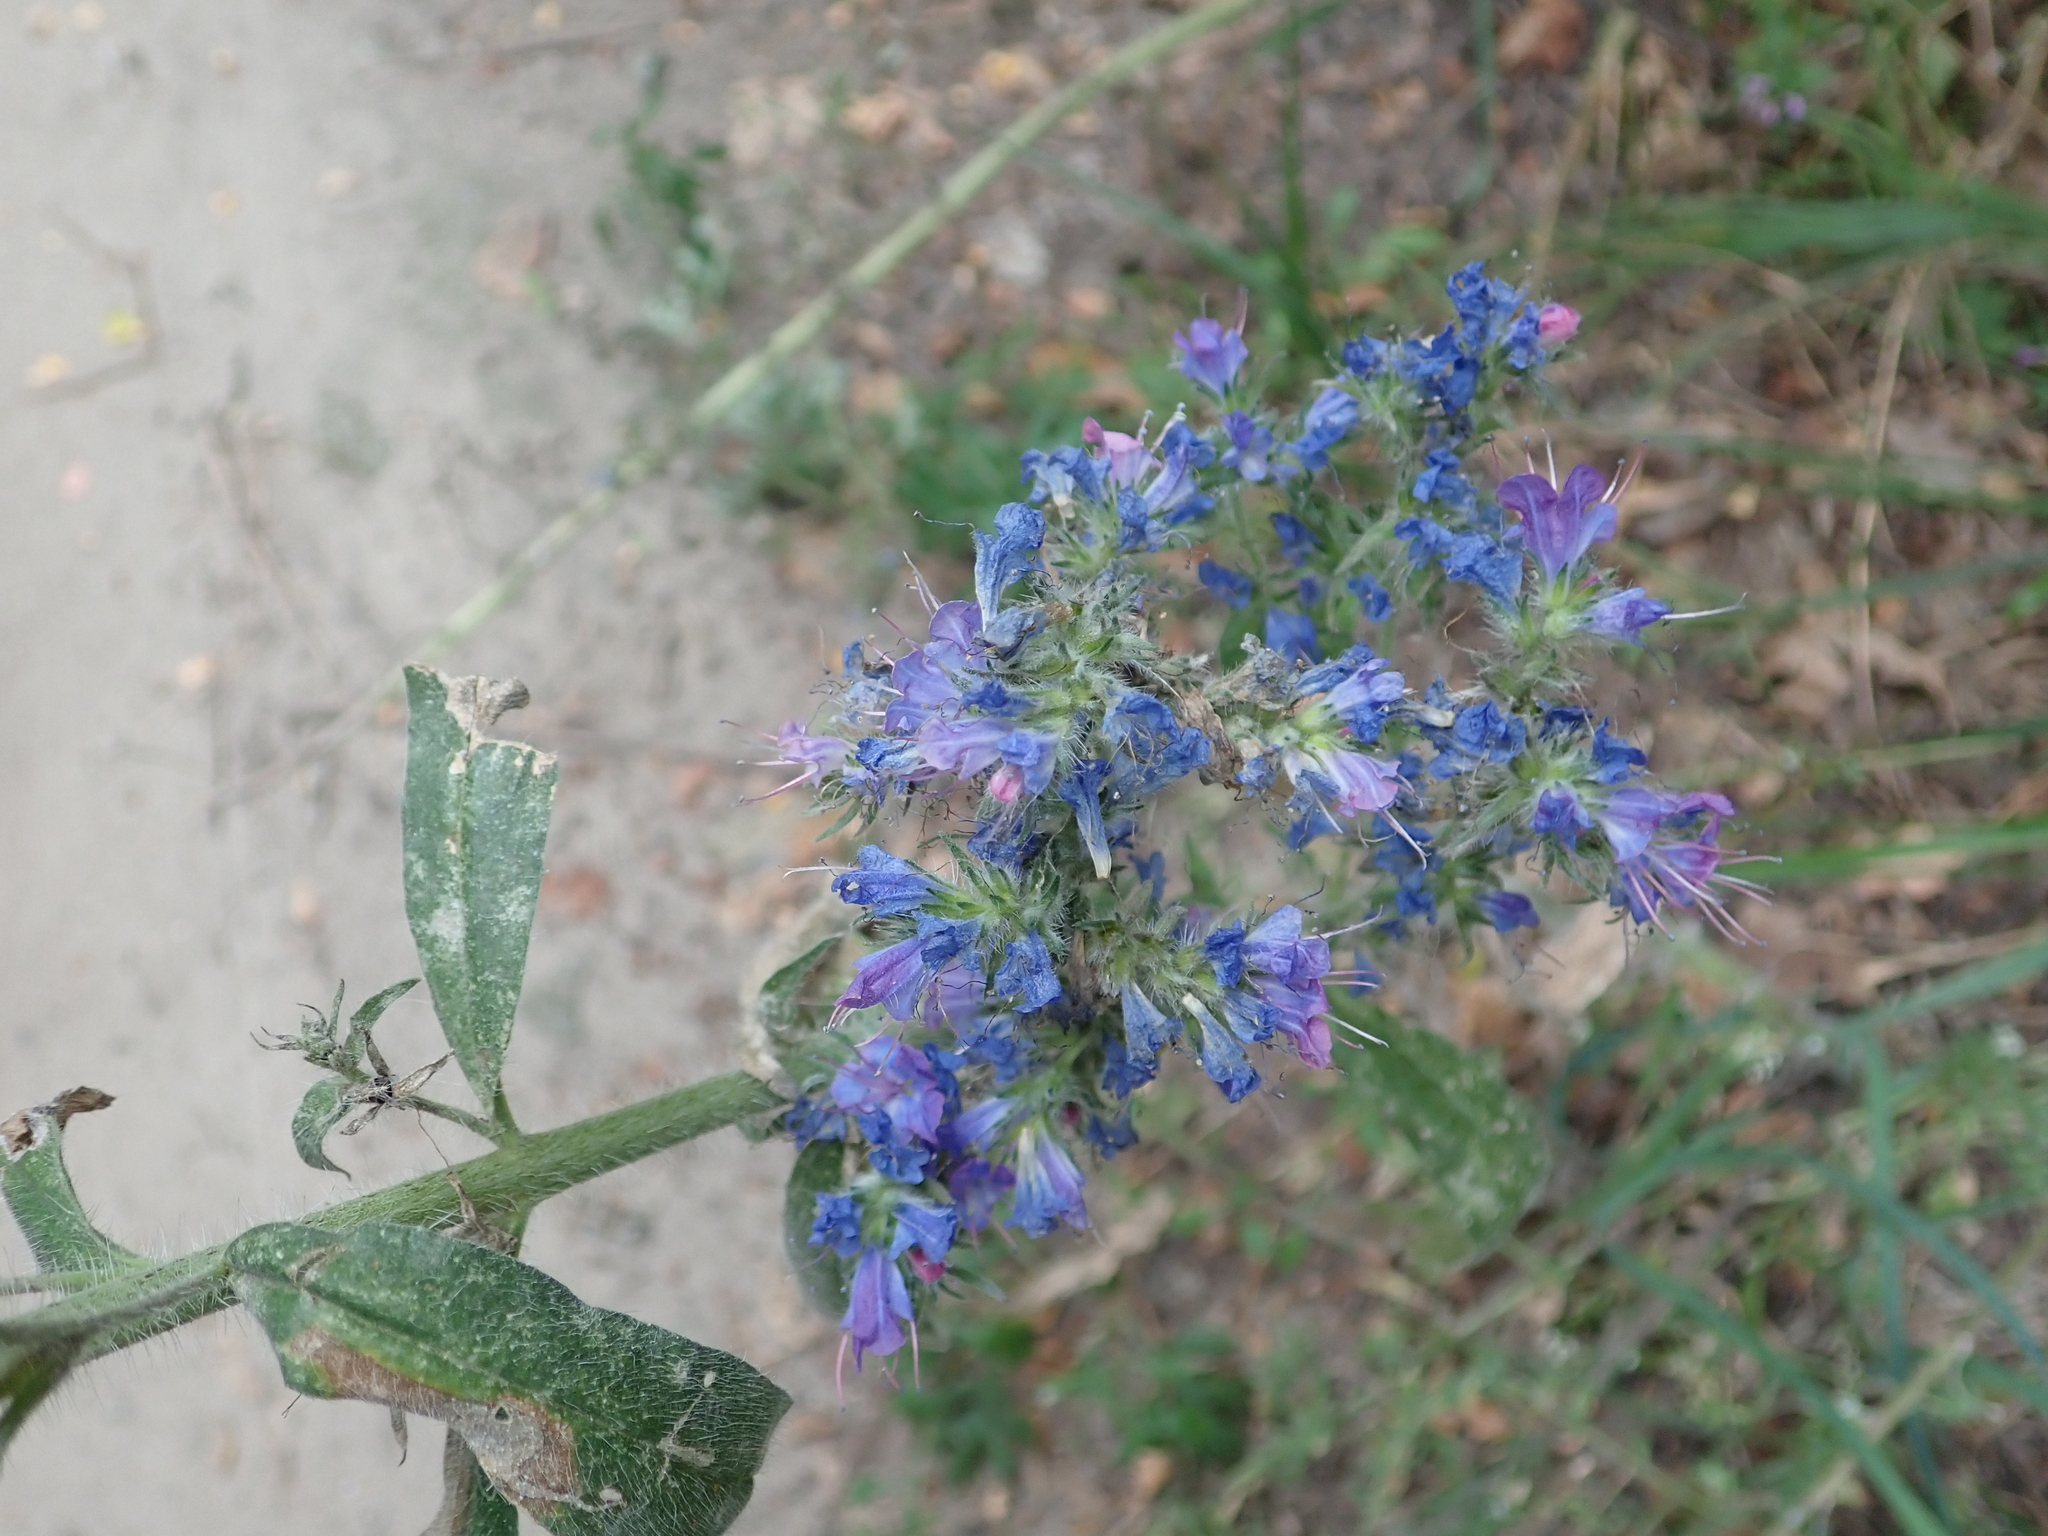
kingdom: Plantae
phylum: Tracheophyta
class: Magnoliopsida
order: Boraginales
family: Boraginaceae
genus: Echium
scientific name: Echium vulgare
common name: Common viper's bugloss
